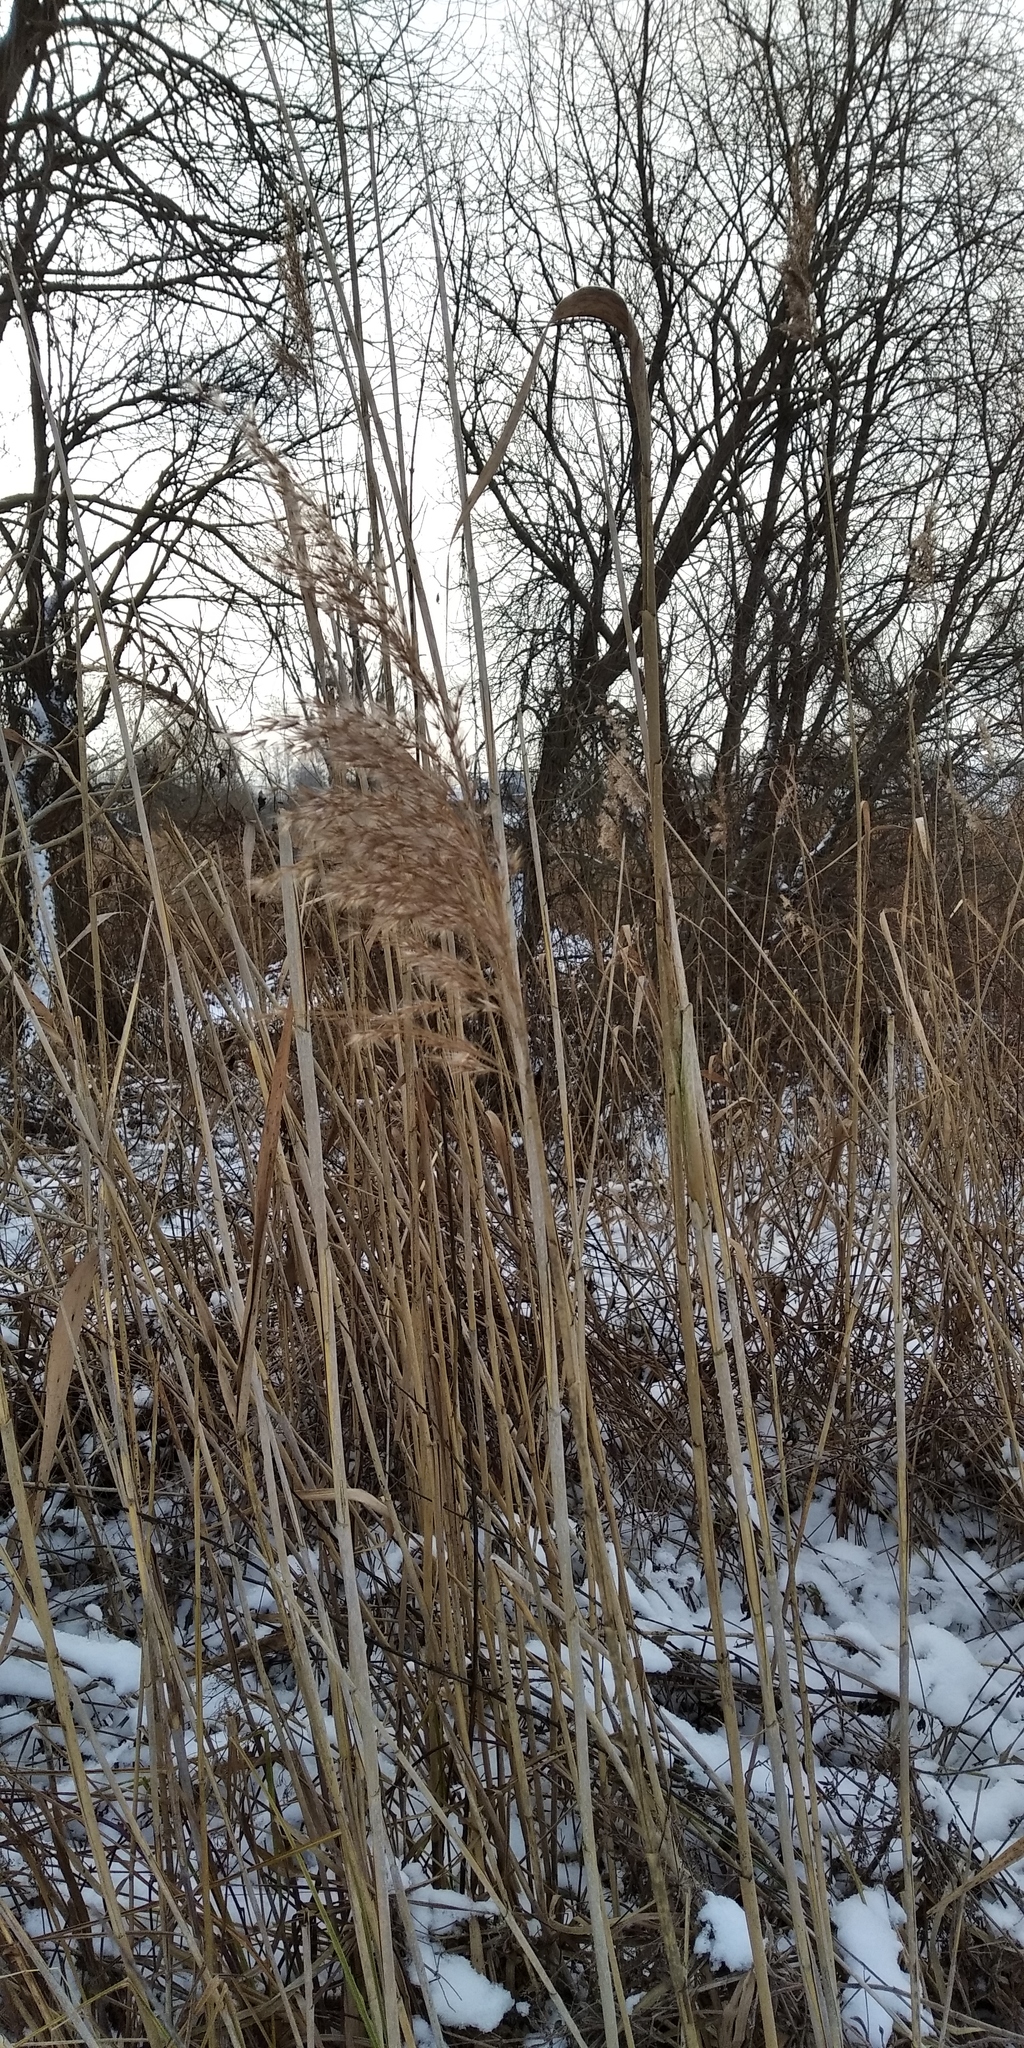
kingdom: Plantae
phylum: Tracheophyta
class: Liliopsida
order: Poales
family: Poaceae
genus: Phragmites
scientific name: Phragmites australis
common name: Common reed
